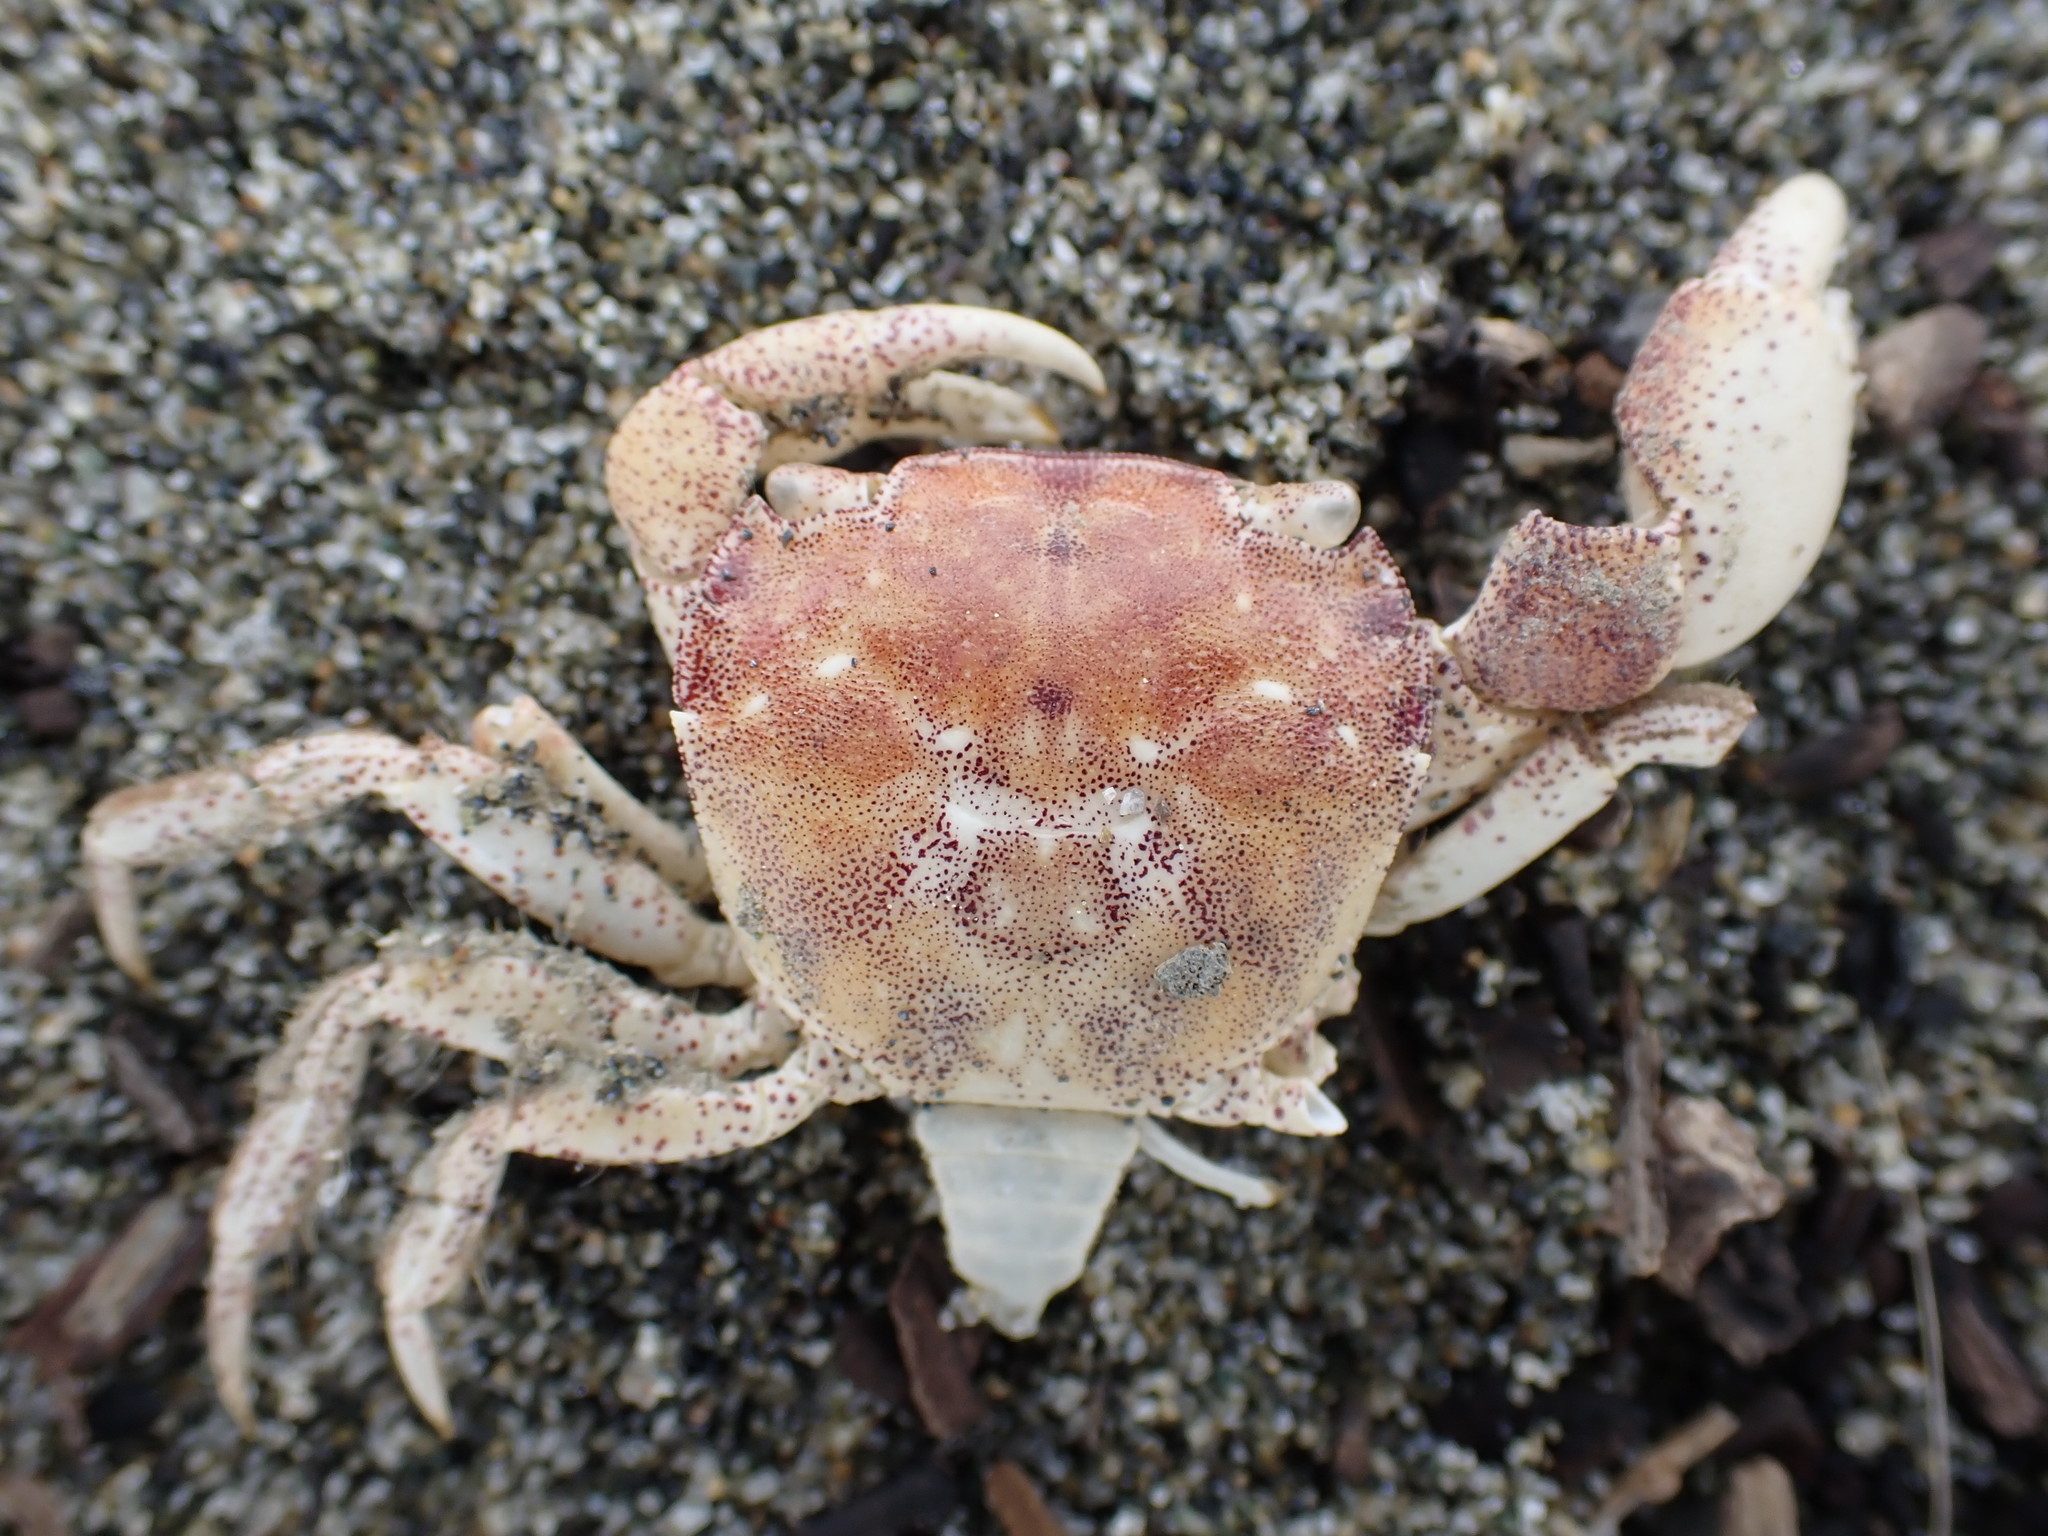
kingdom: Animalia
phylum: Arthropoda
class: Malacostraca
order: Decapoda
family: Varunidae
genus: Hemigrapsus
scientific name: Hemigrapsus crenulatus
